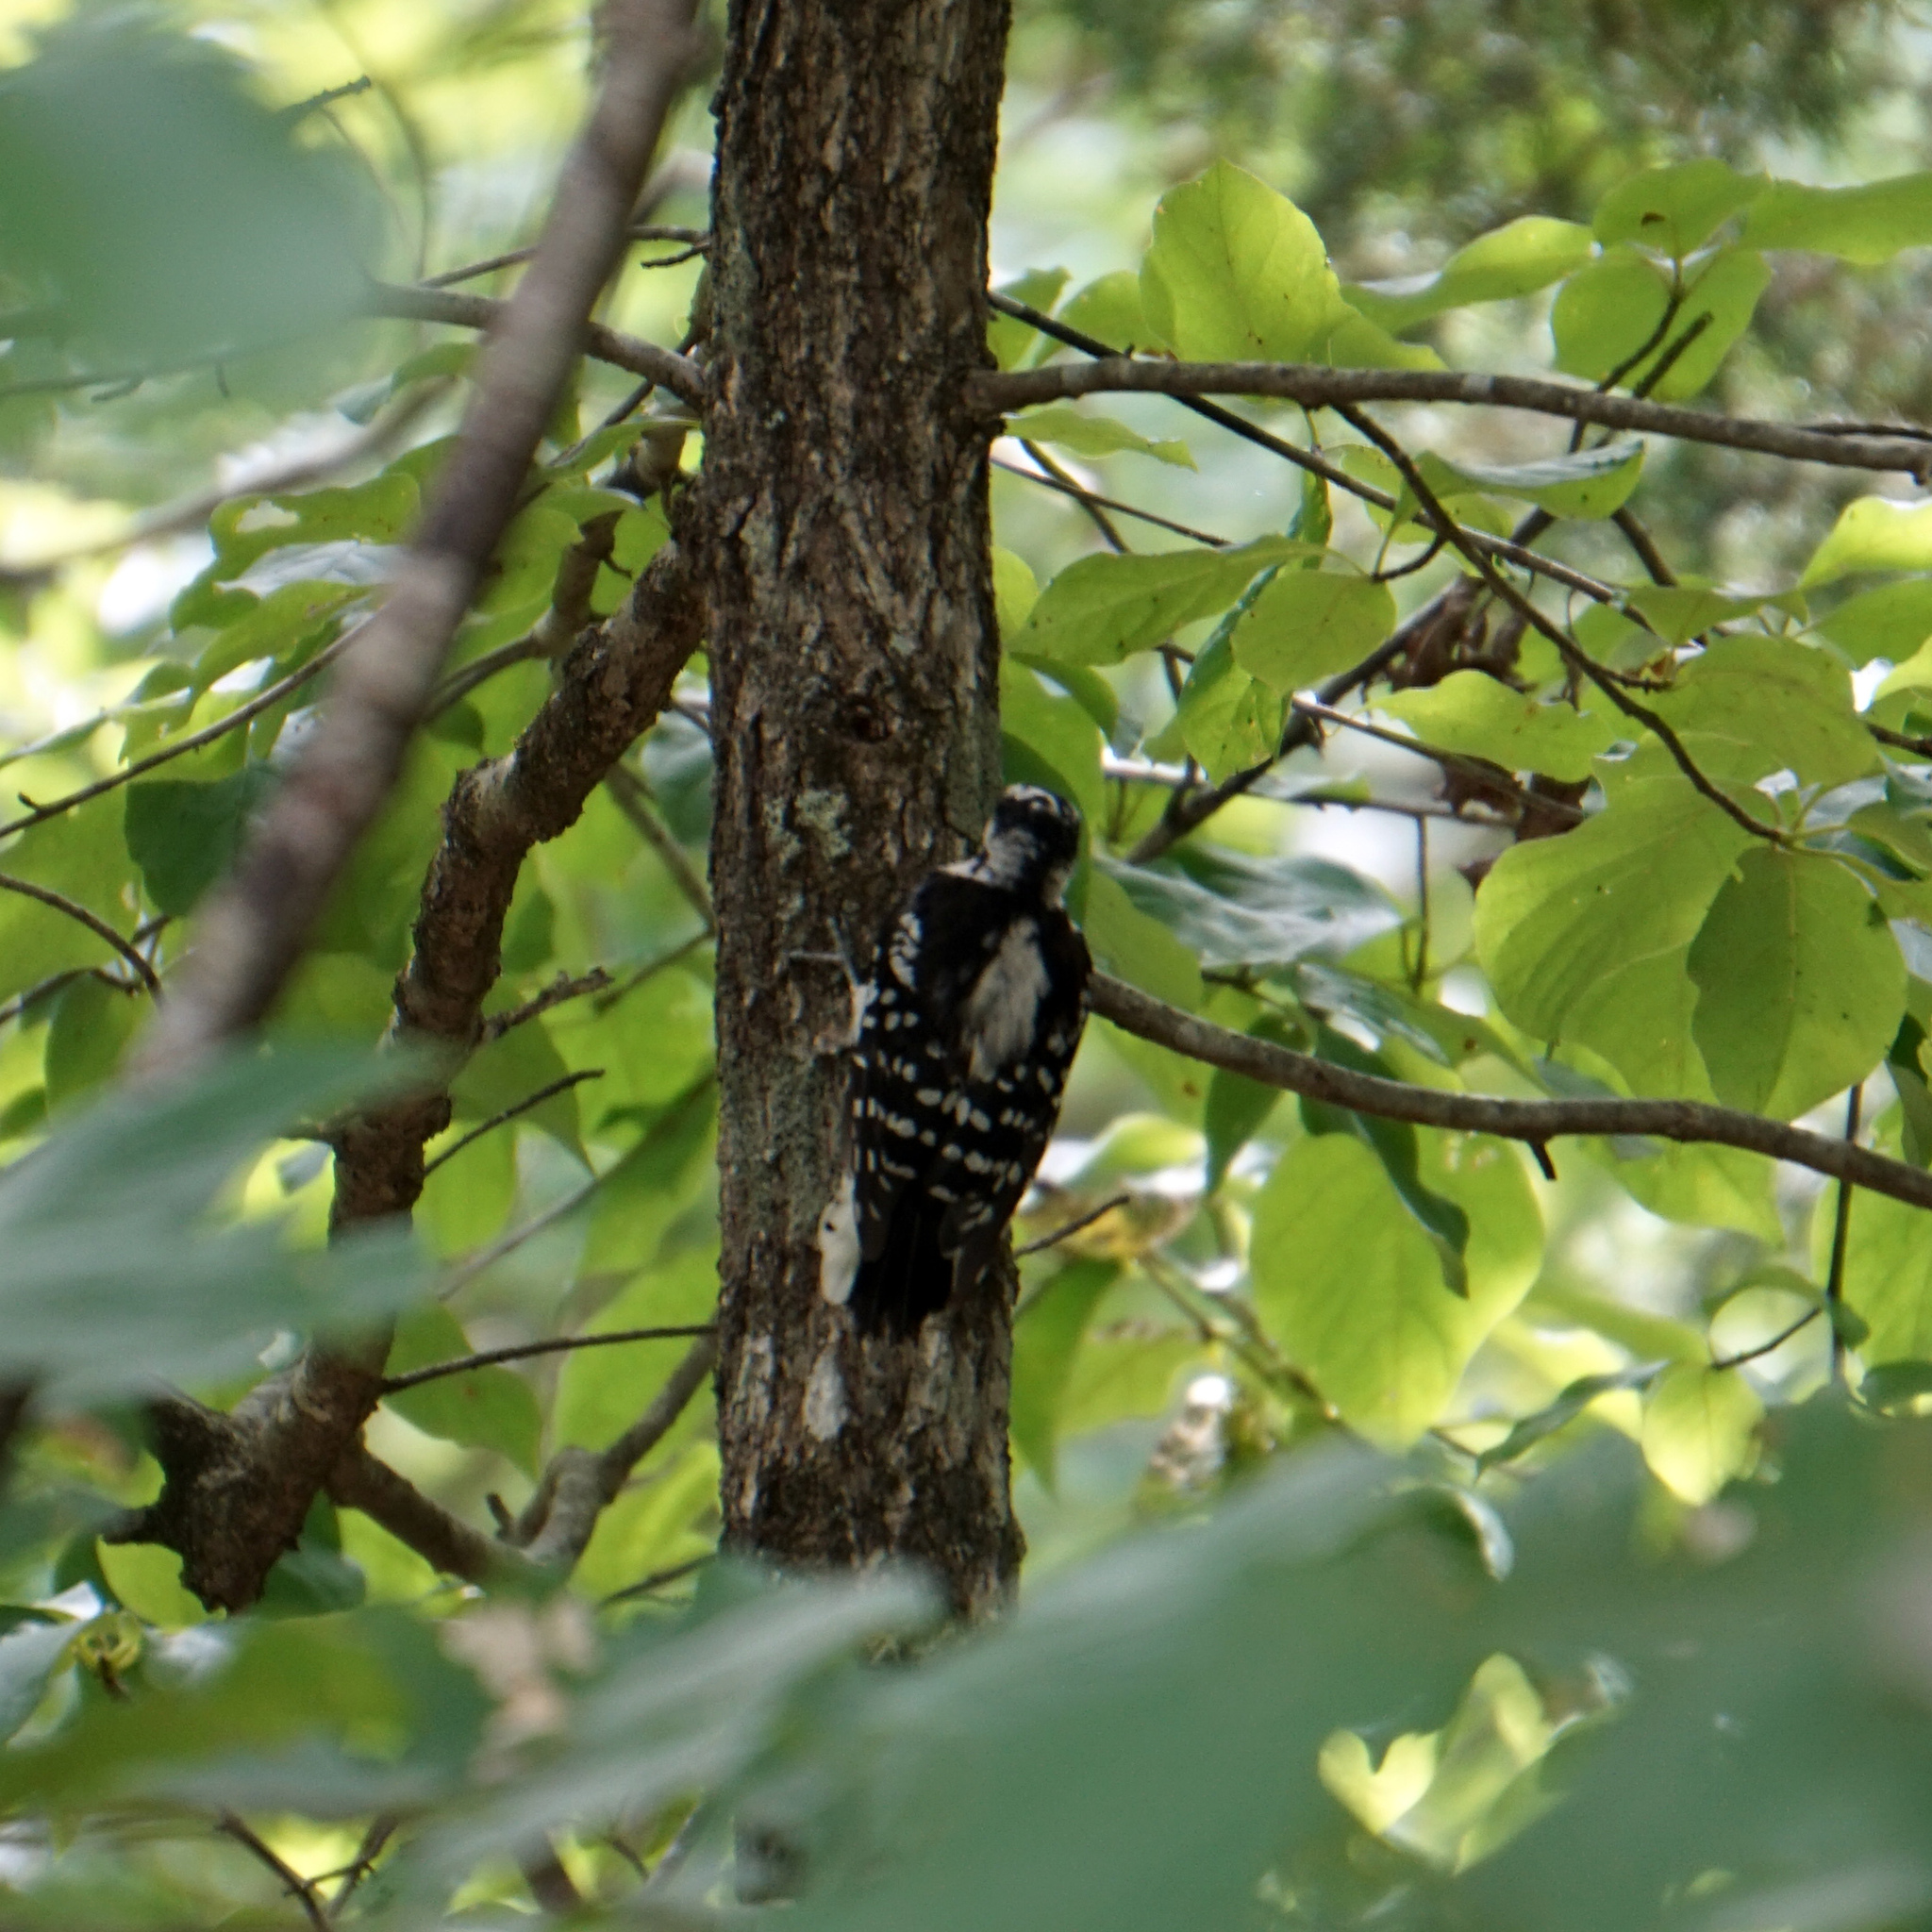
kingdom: Animalia
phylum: Chordata
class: Aves
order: Piciformes
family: Picidae
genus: Dryobates
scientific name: Dryobates pubescens
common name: Downy woodpecker
